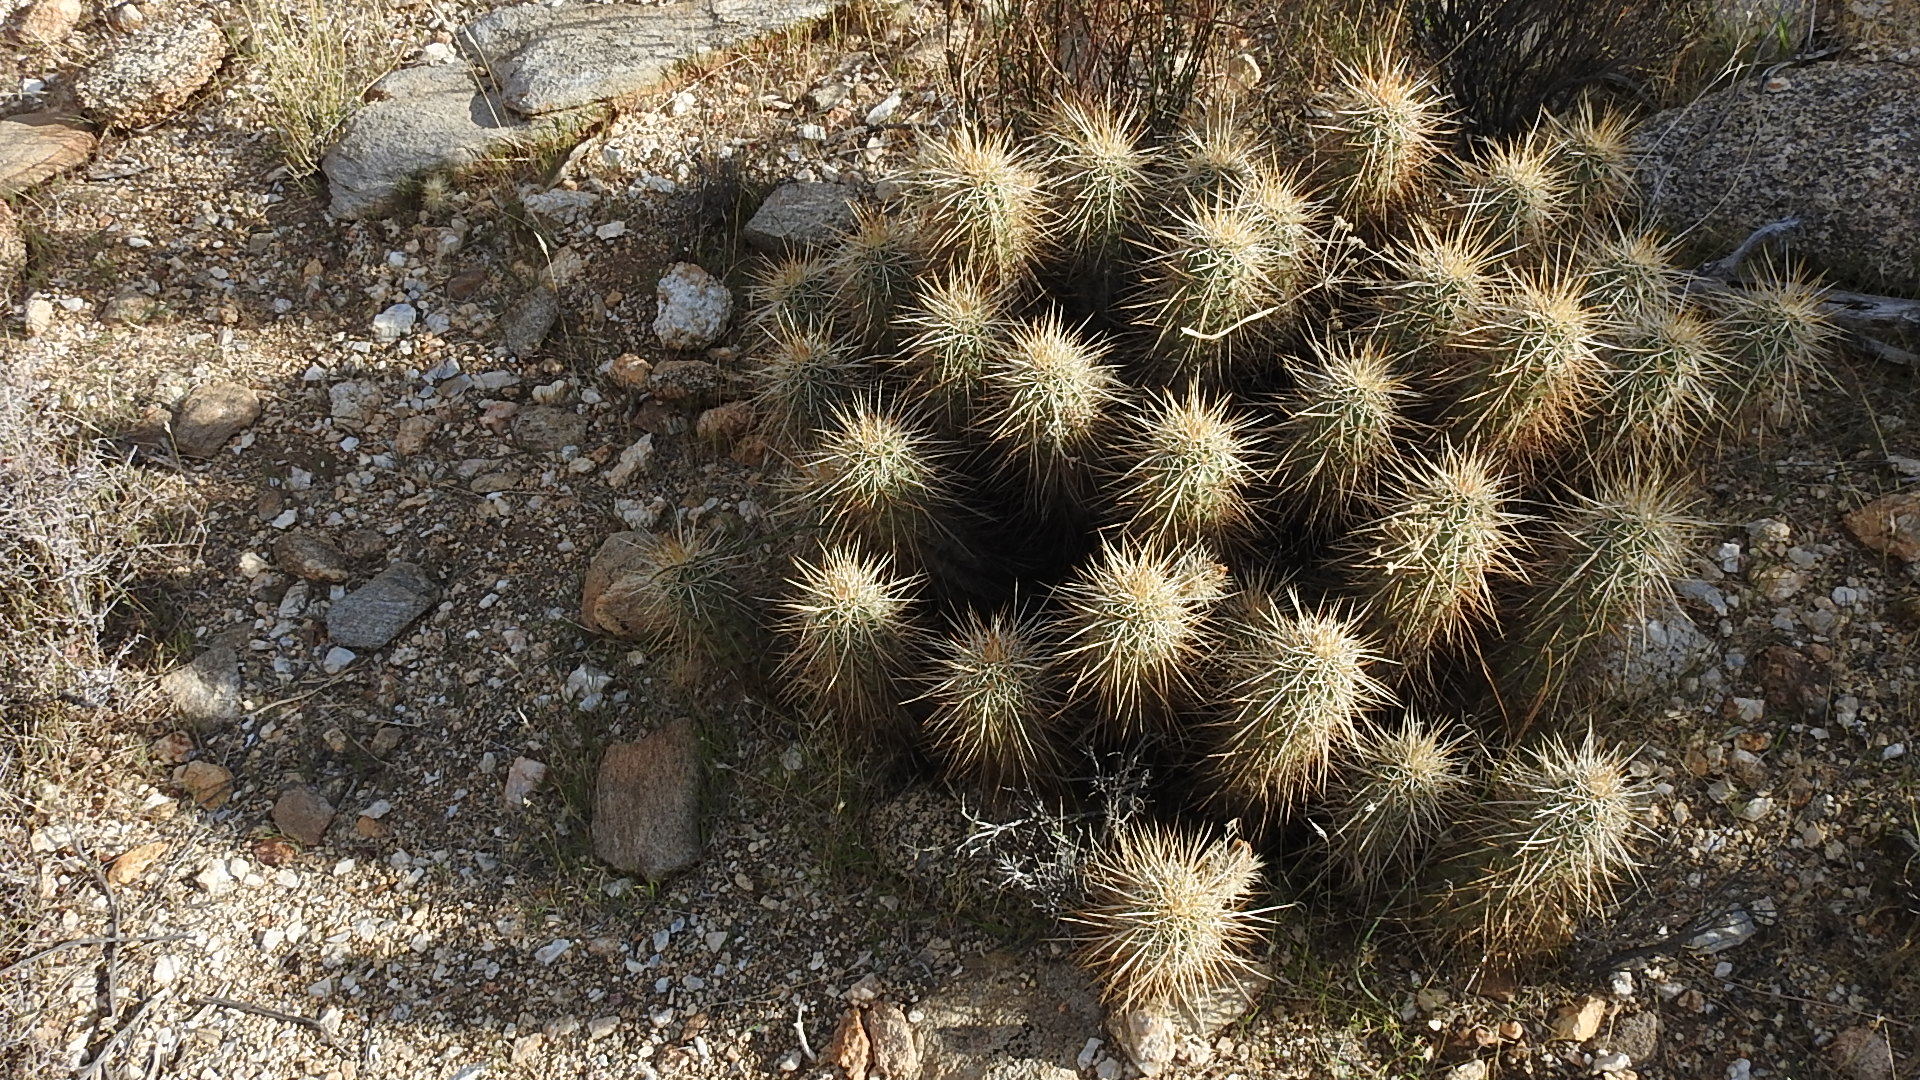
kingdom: Plantae
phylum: Tracheophyta
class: Magnoliopsida
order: Caryophyllales
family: Cactaceae
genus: Echinocereus
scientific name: Echinocereus engelmannii
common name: Engelmann's hedgehog cactus
